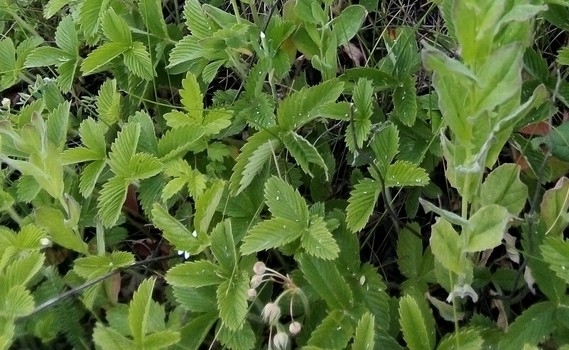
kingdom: Plantae
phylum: Tracheophyta
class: Magnoliopsida
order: Rosales
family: Rosaceae
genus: Fragaria
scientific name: Fragaria viridis
